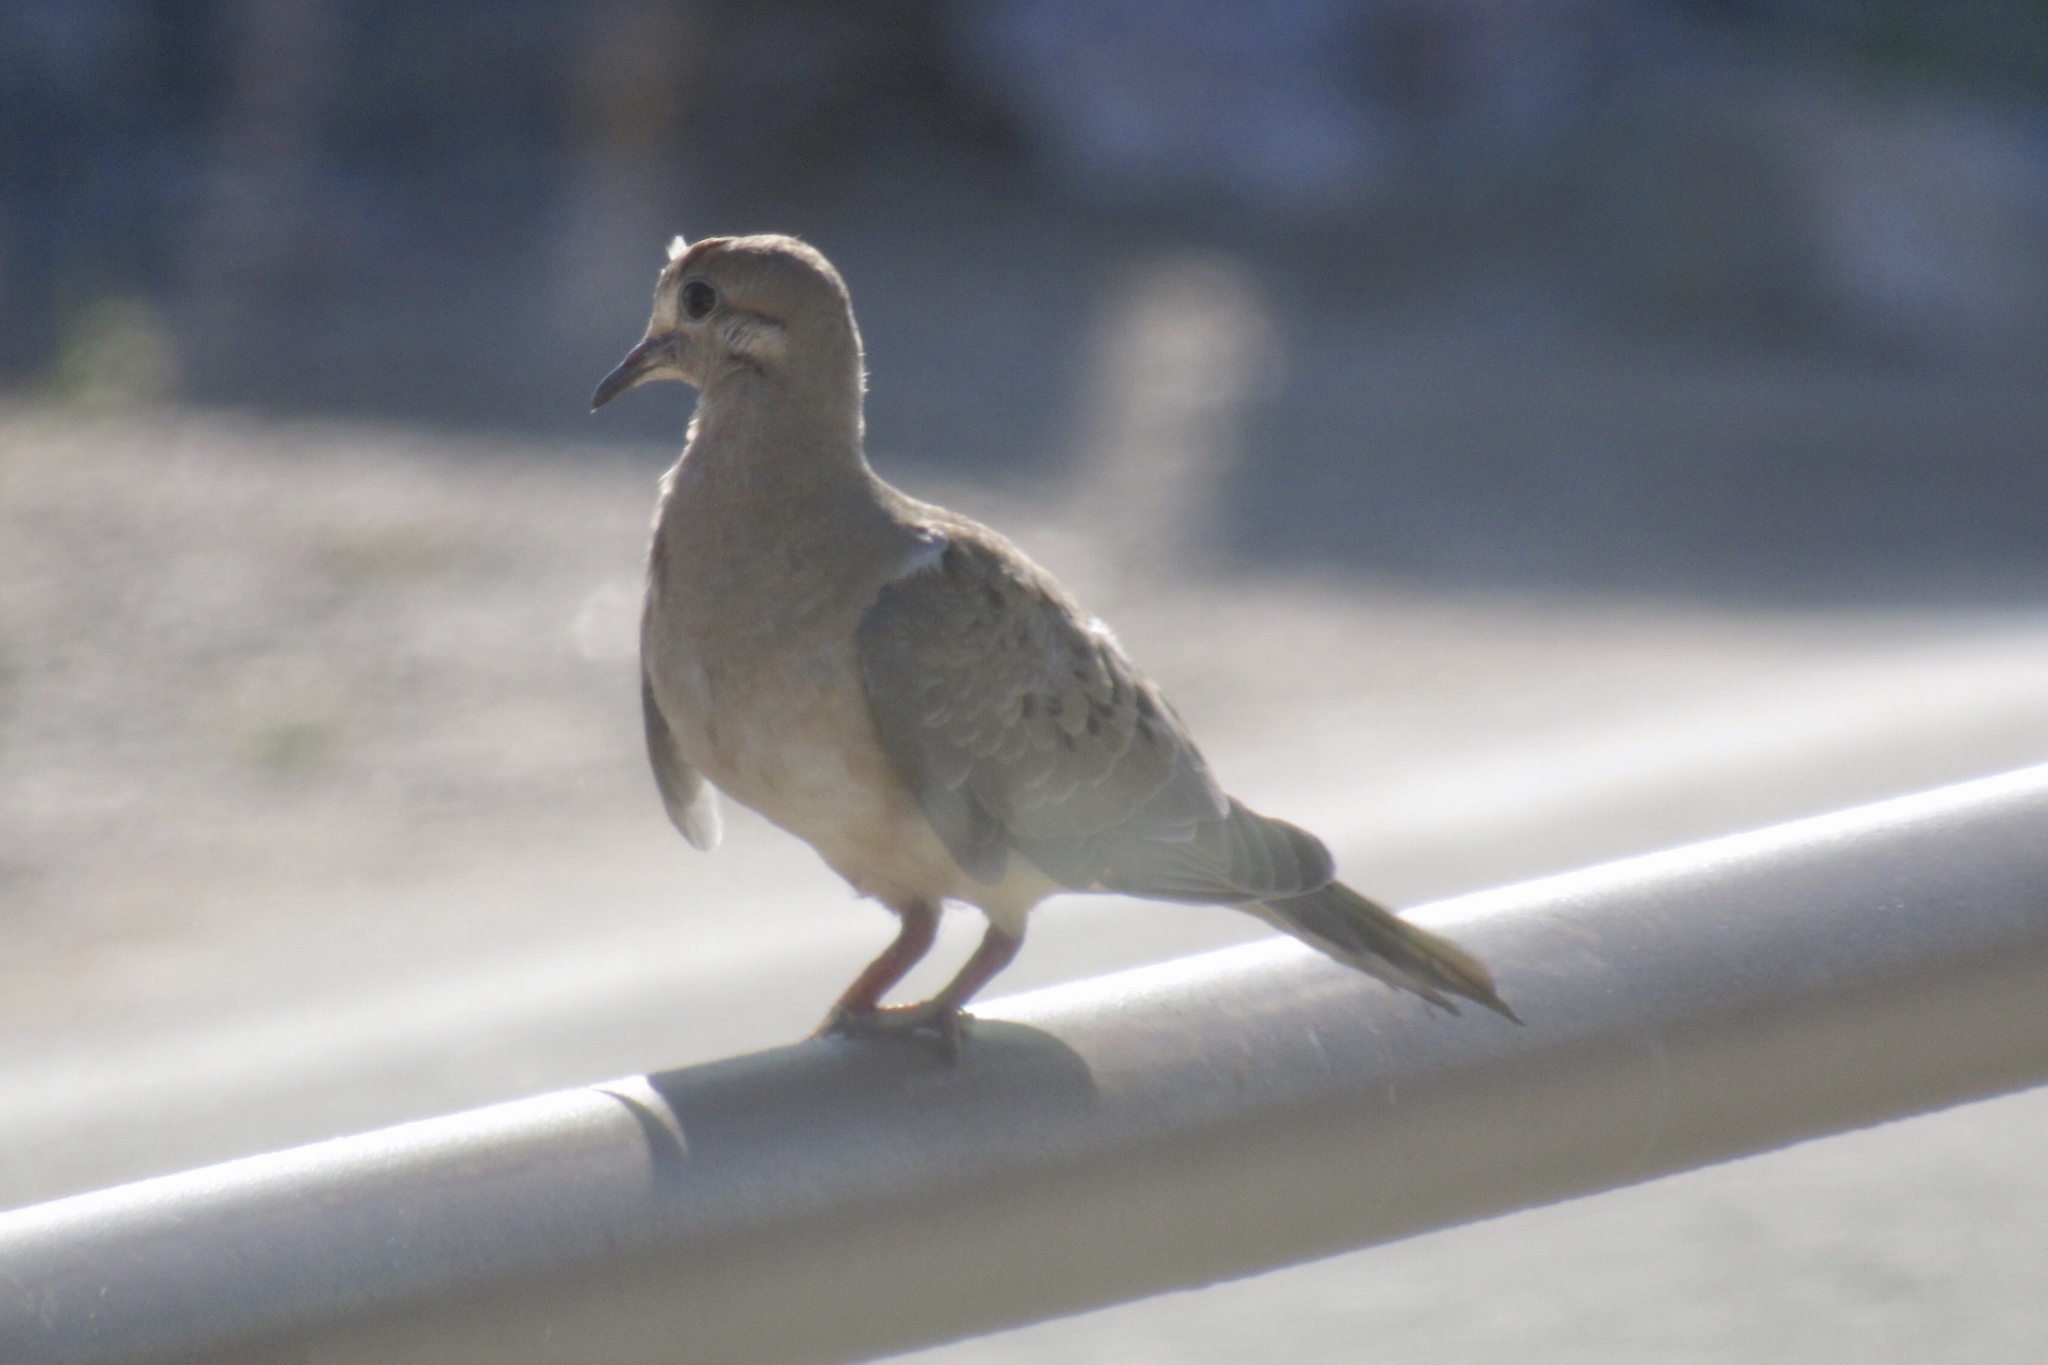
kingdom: Animalia
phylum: Chordata
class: Aves
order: Columbiformes
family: Columbidae
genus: Zenaida
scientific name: Zenaida macroura
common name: Mourning dove
